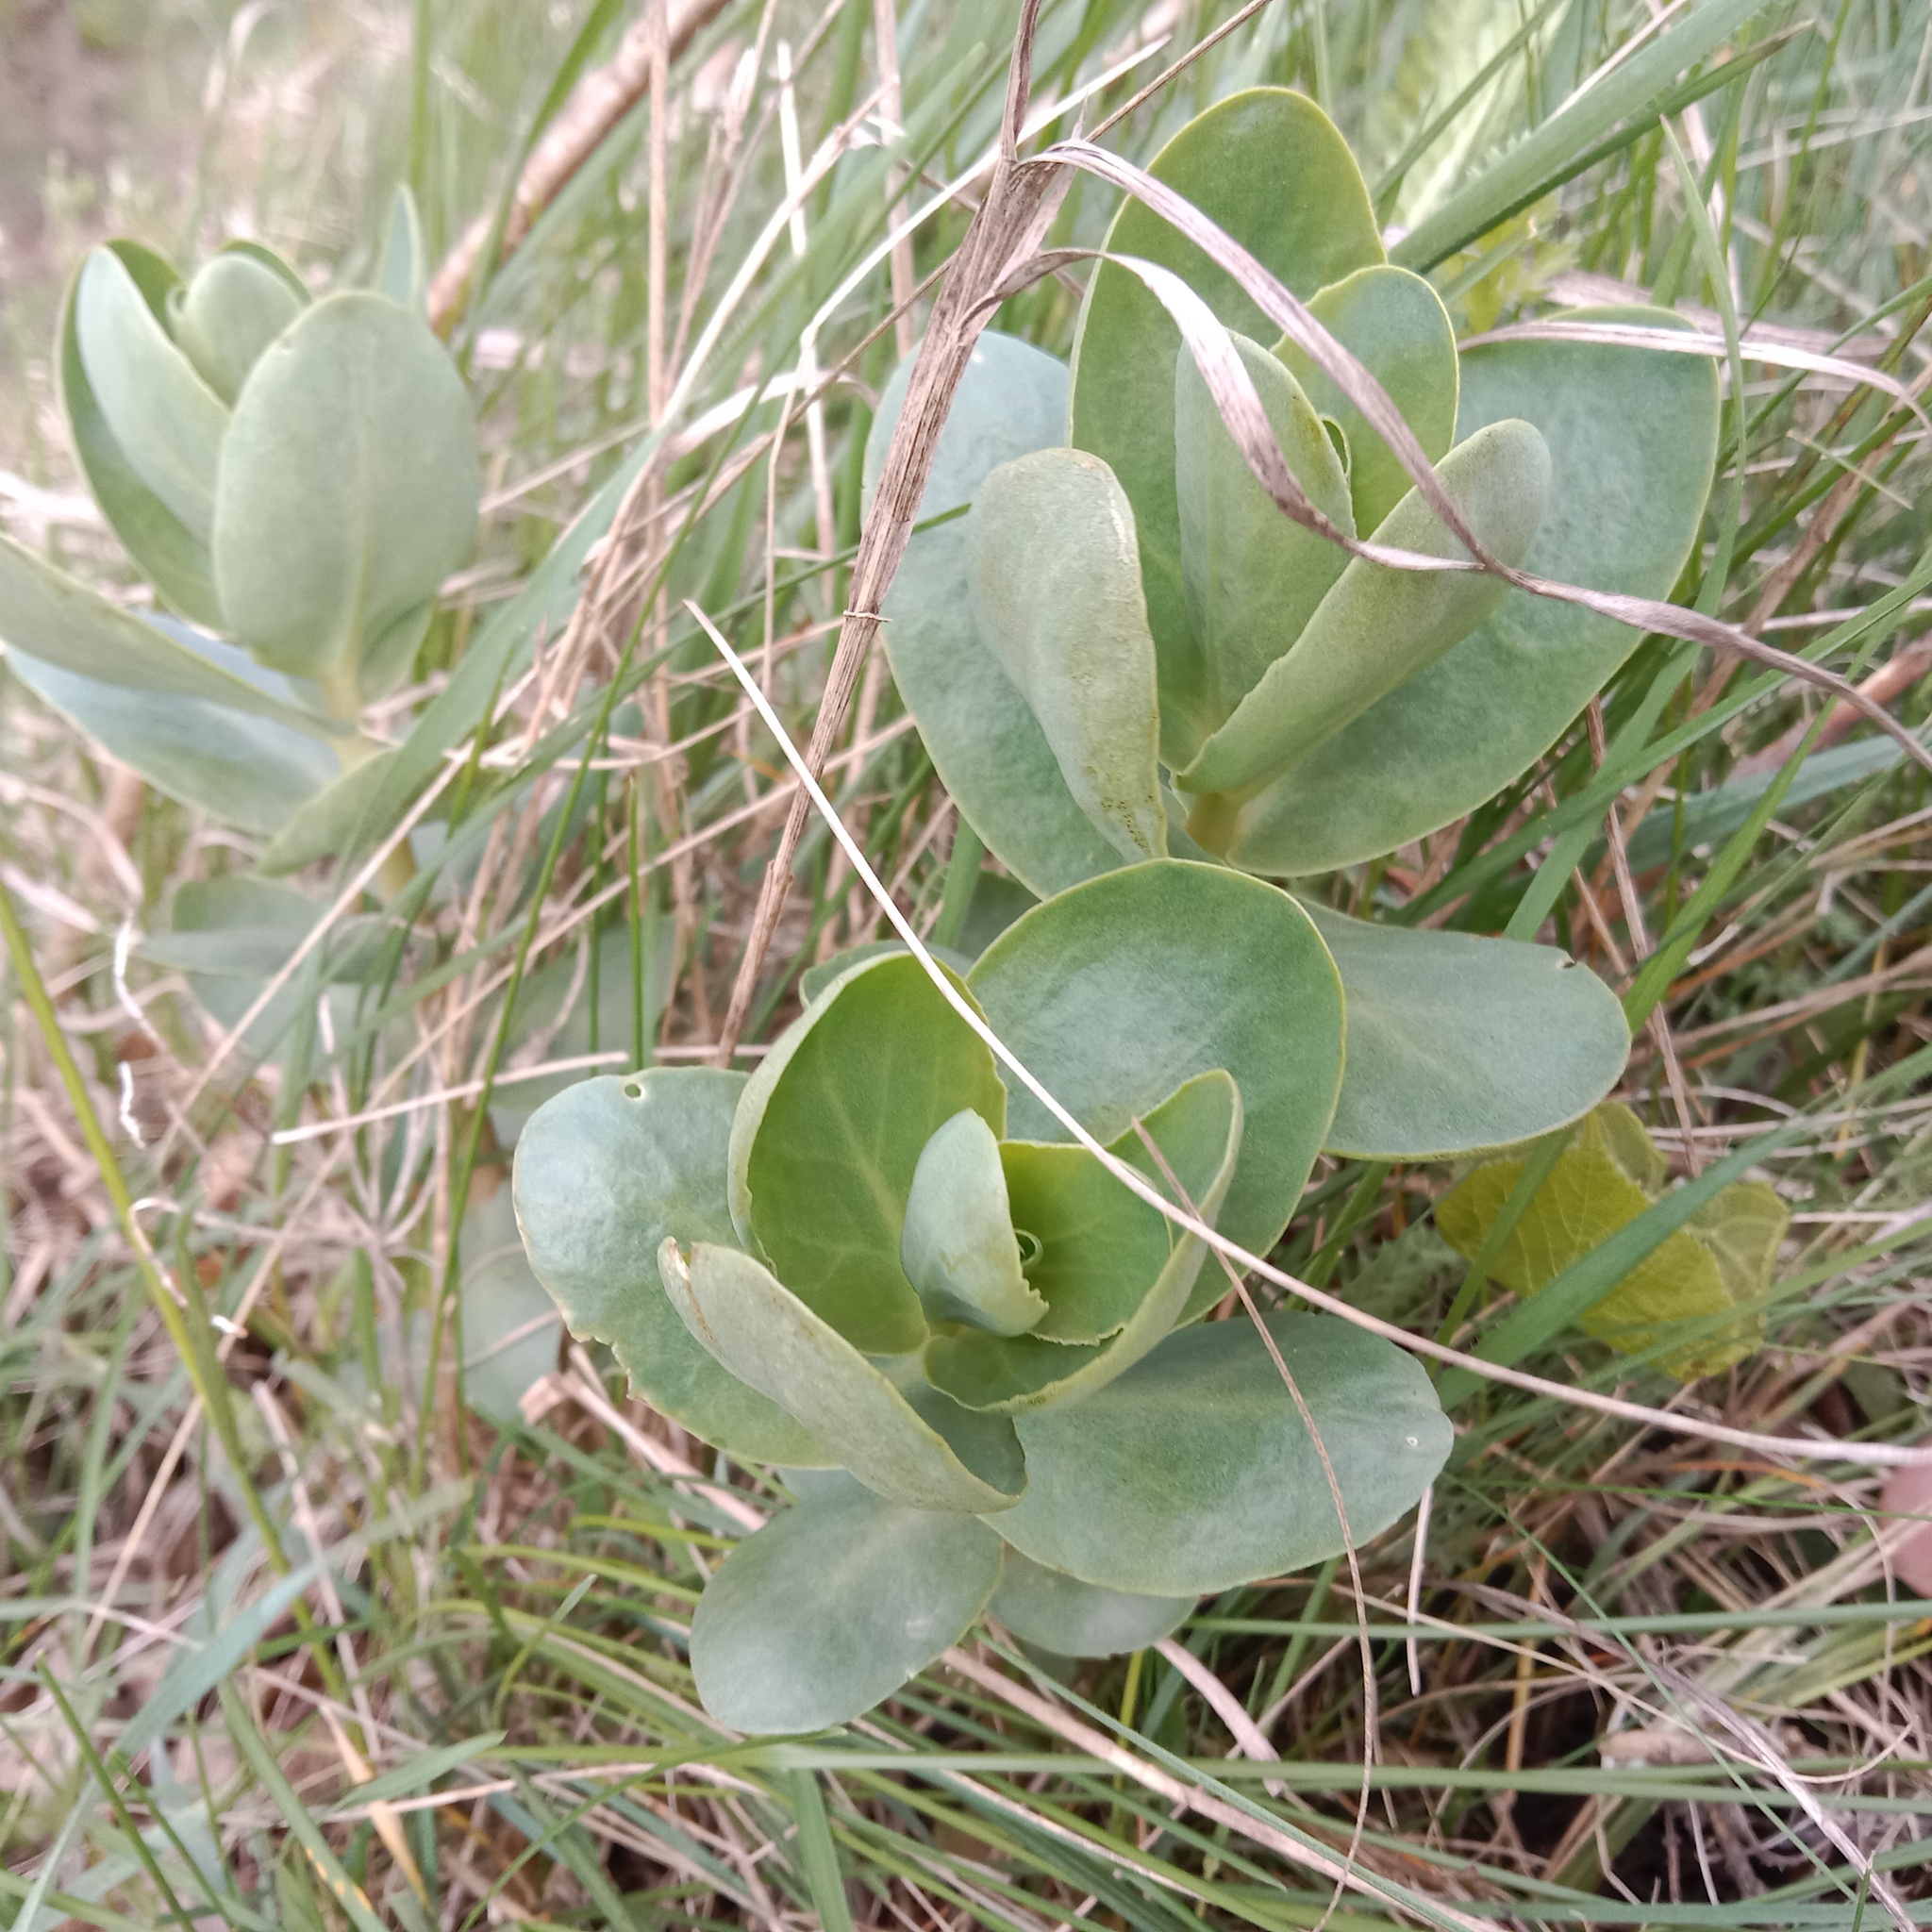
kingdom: Plantae
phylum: Tracheophyta
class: Magnoliopsida
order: Saxifragales
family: Crassulaceae
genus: Hylotelephium
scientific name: Hylotelephium maximum
